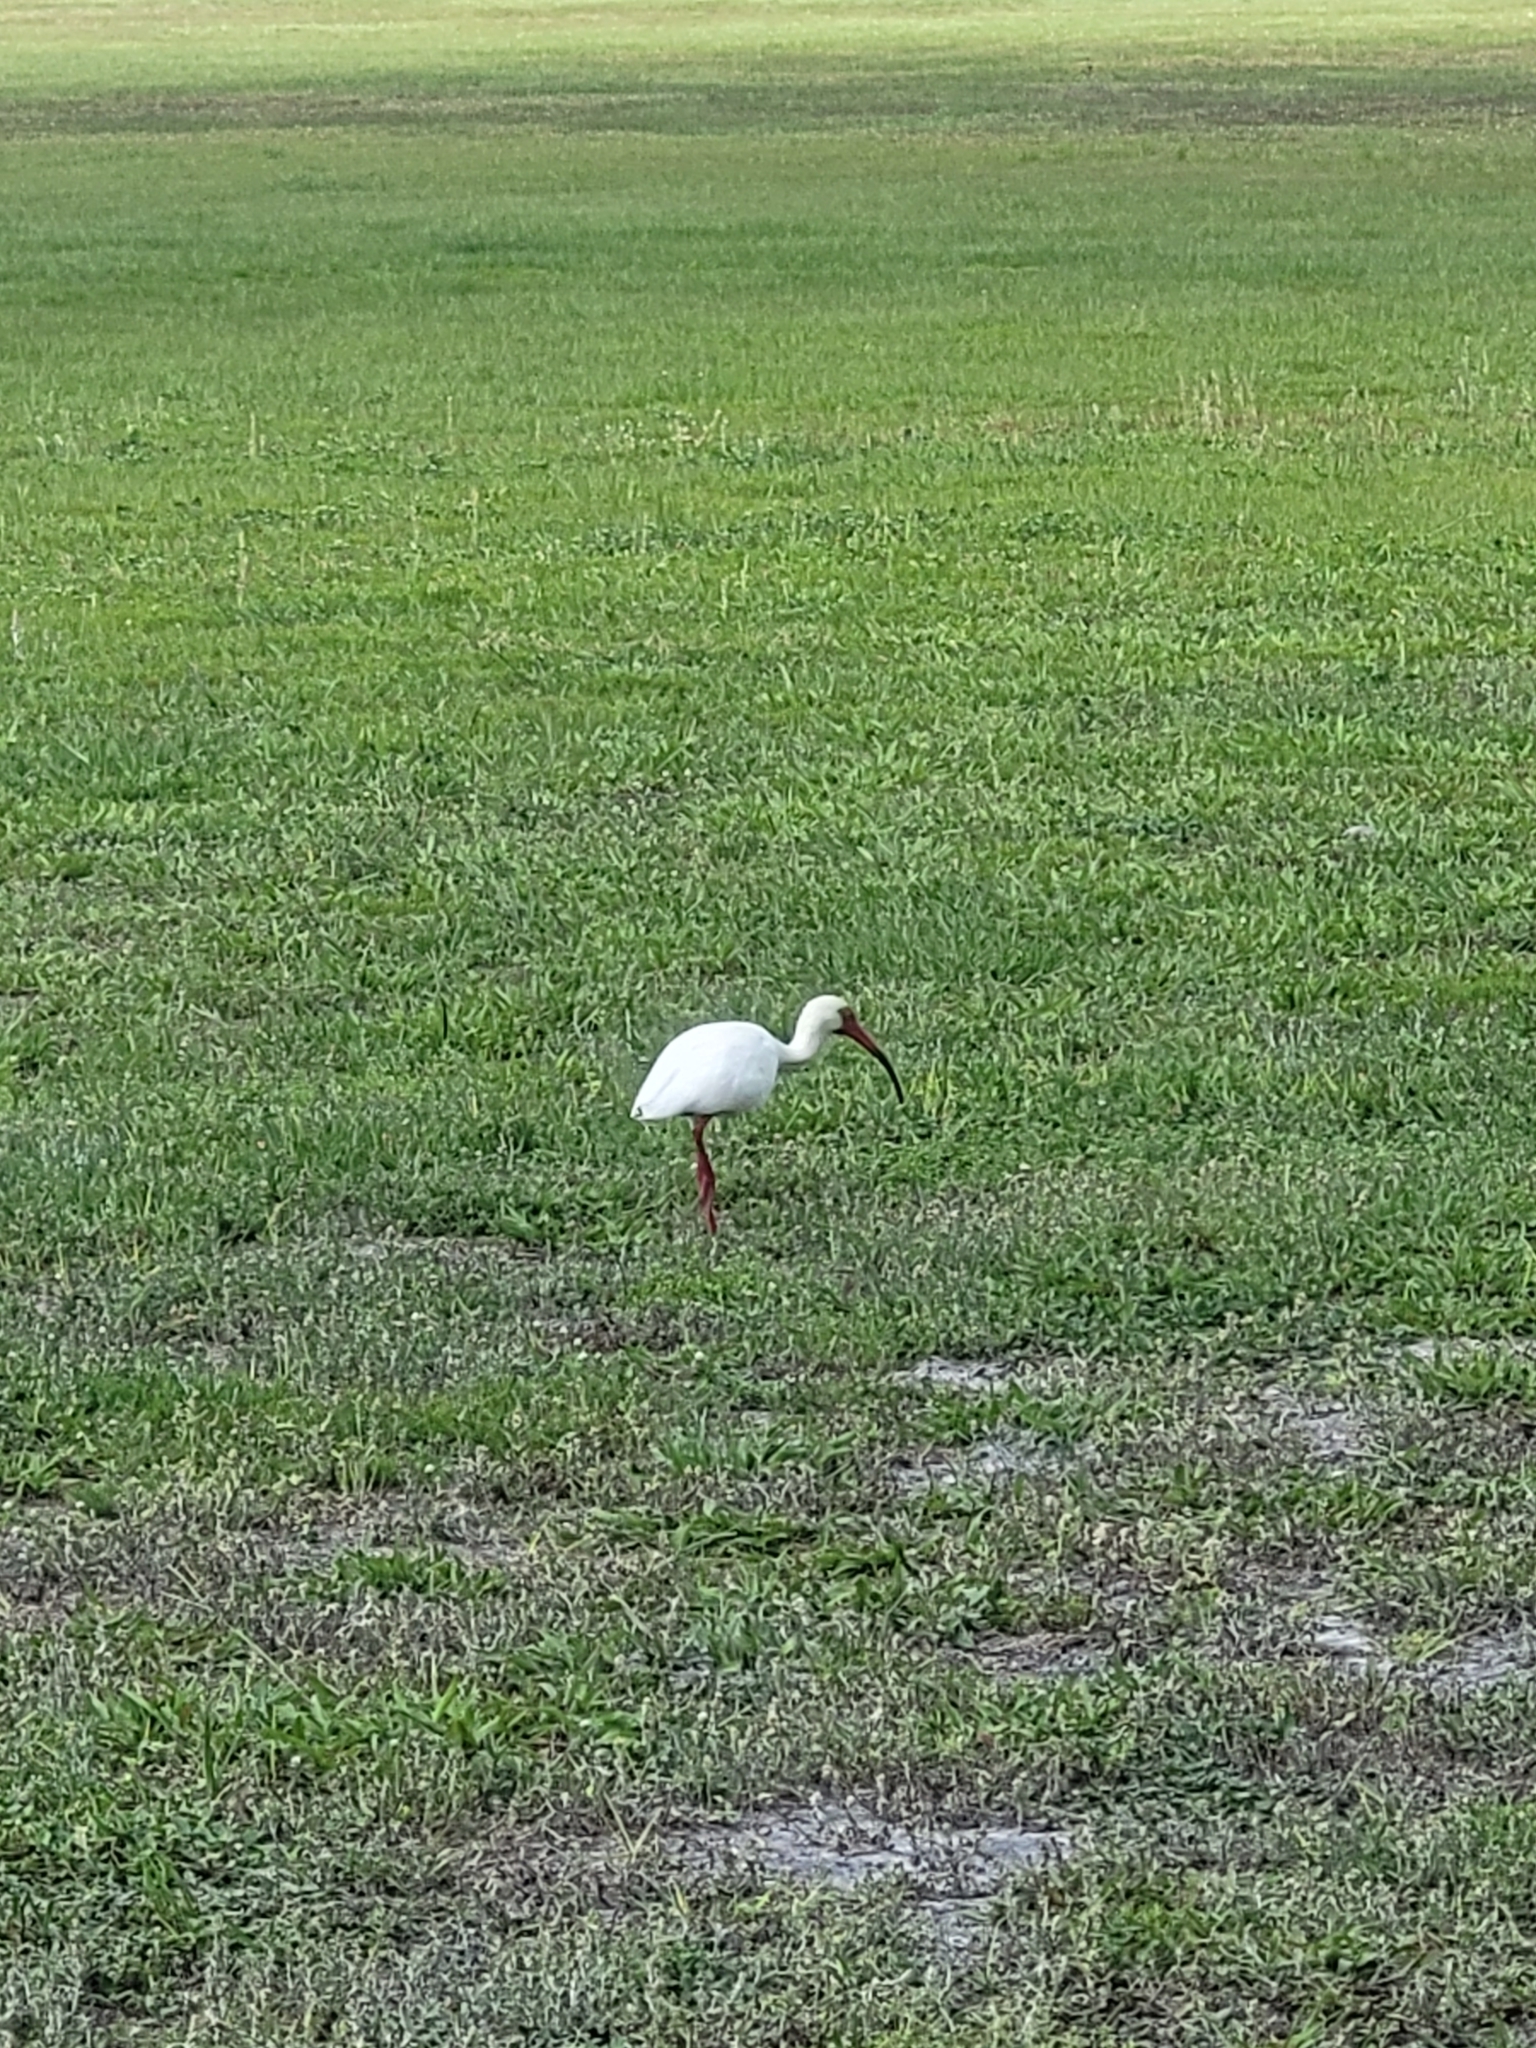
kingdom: Animalia
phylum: Chordata
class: Aves
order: Pelecaniformes
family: Threskiornithidae
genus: Eudocimus
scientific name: Eudocimus albus
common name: White ibis
